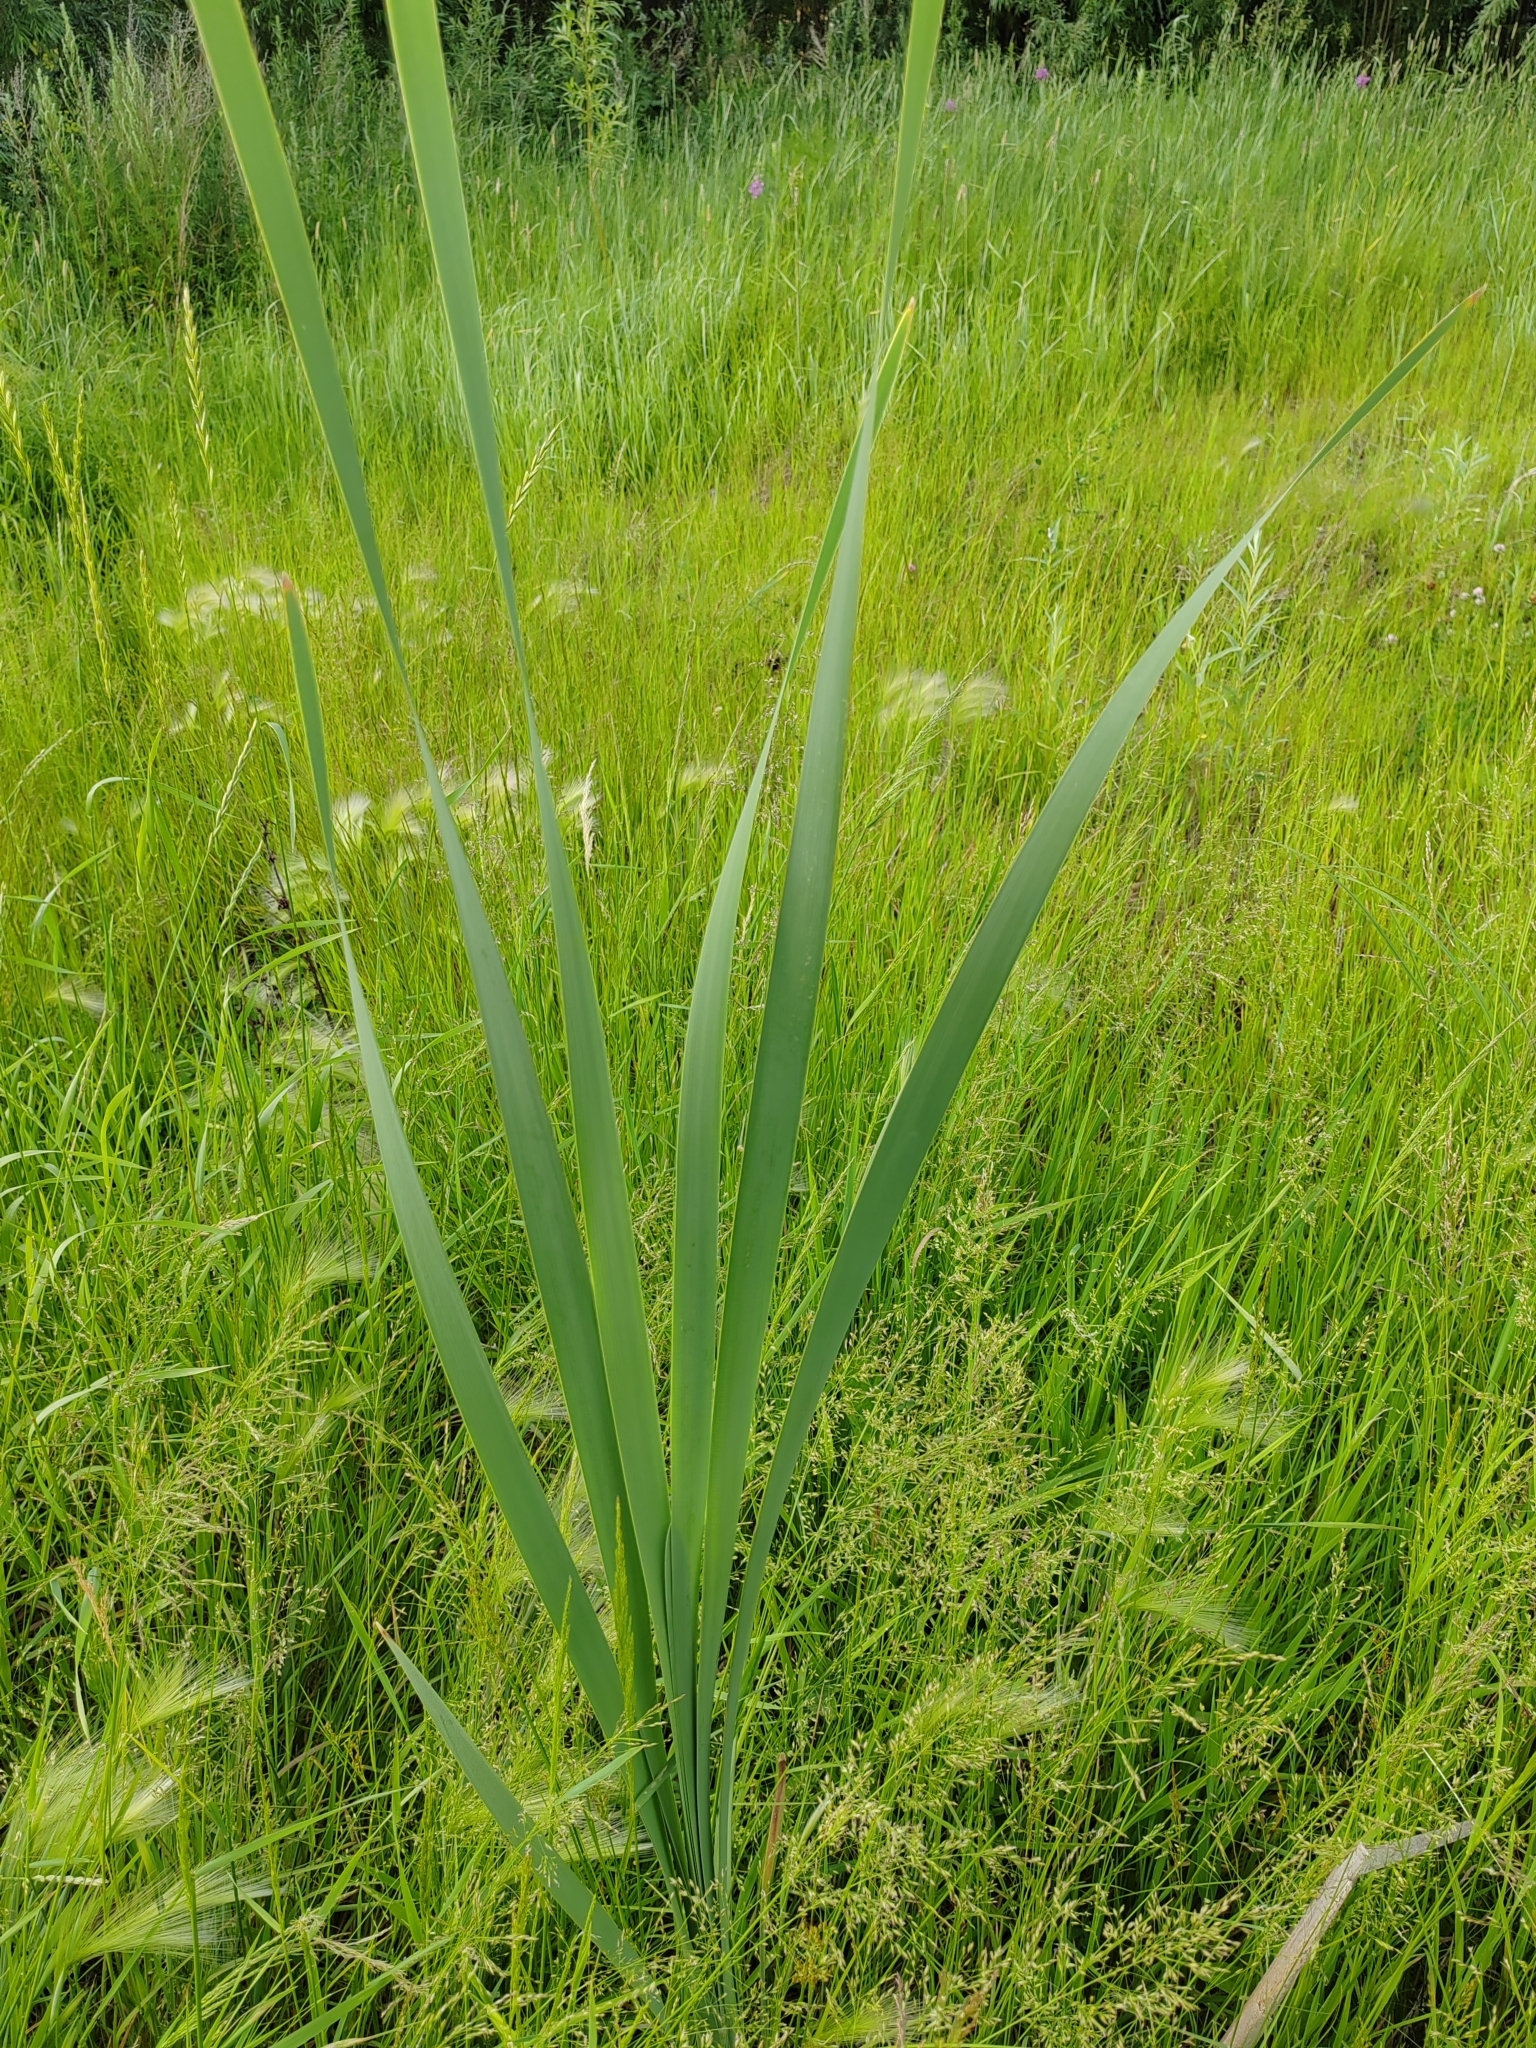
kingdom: Plantae
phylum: Tracheophyta
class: Liliopsida
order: Poales
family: Typhaceae
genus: Typha
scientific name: Typha latifolia
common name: Broadleaf cattail
